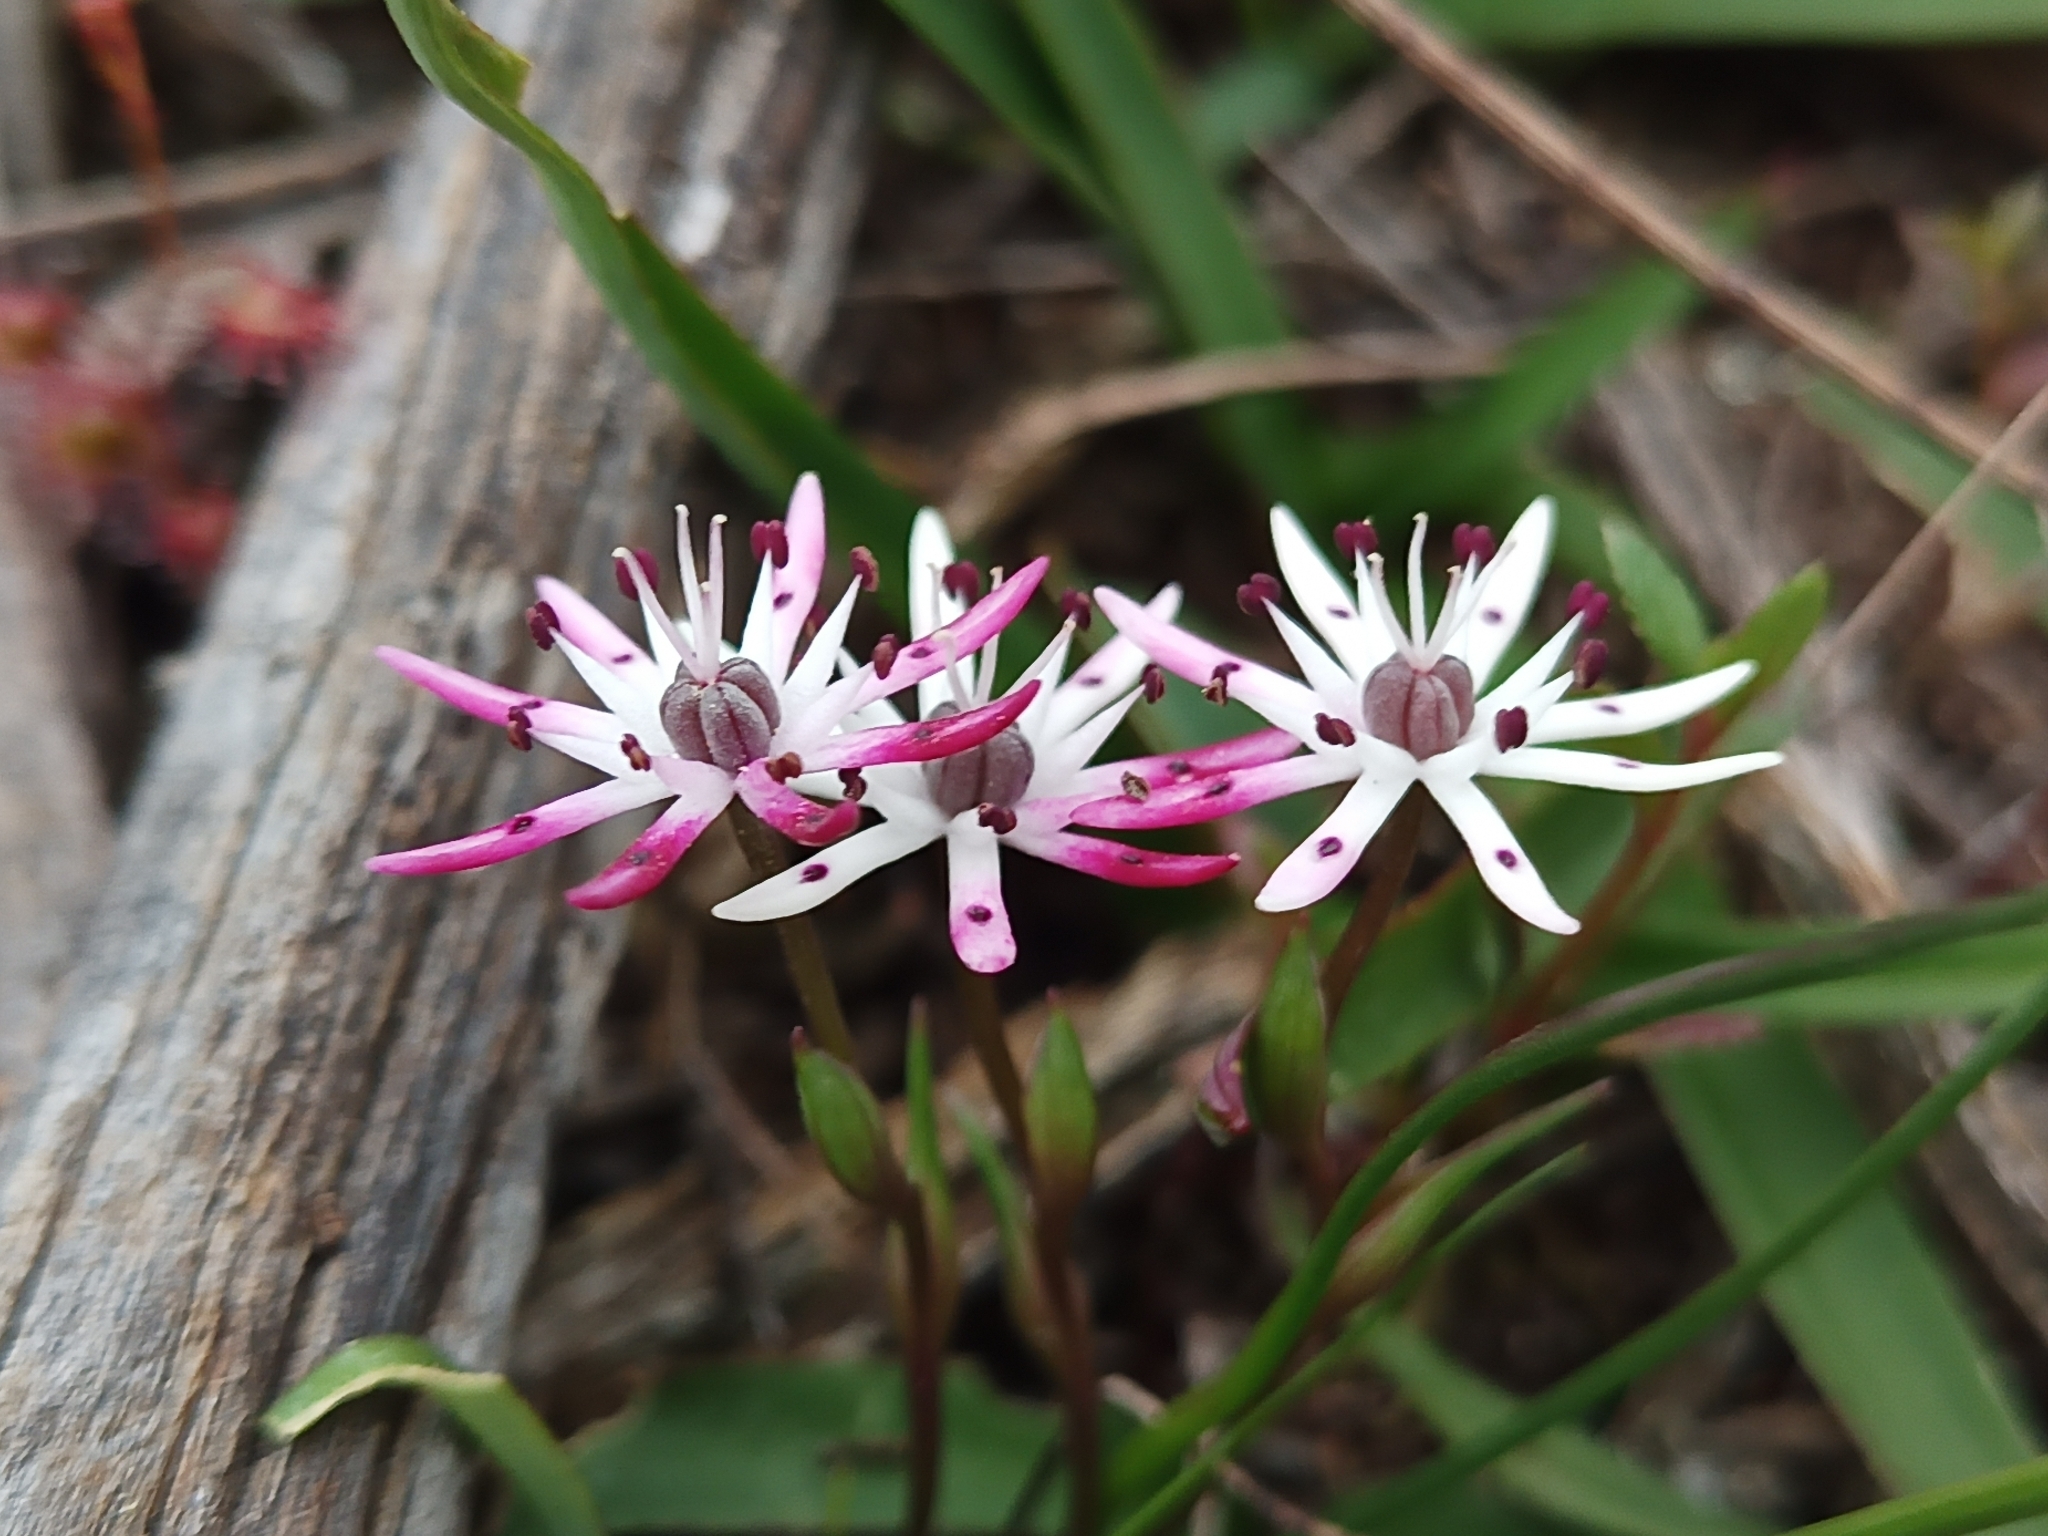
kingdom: Plantae
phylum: Tracheophyta
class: Liliopsida
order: Liliales
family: Colchicaceae
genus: Wurmbea
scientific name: Wurmbea tenella
